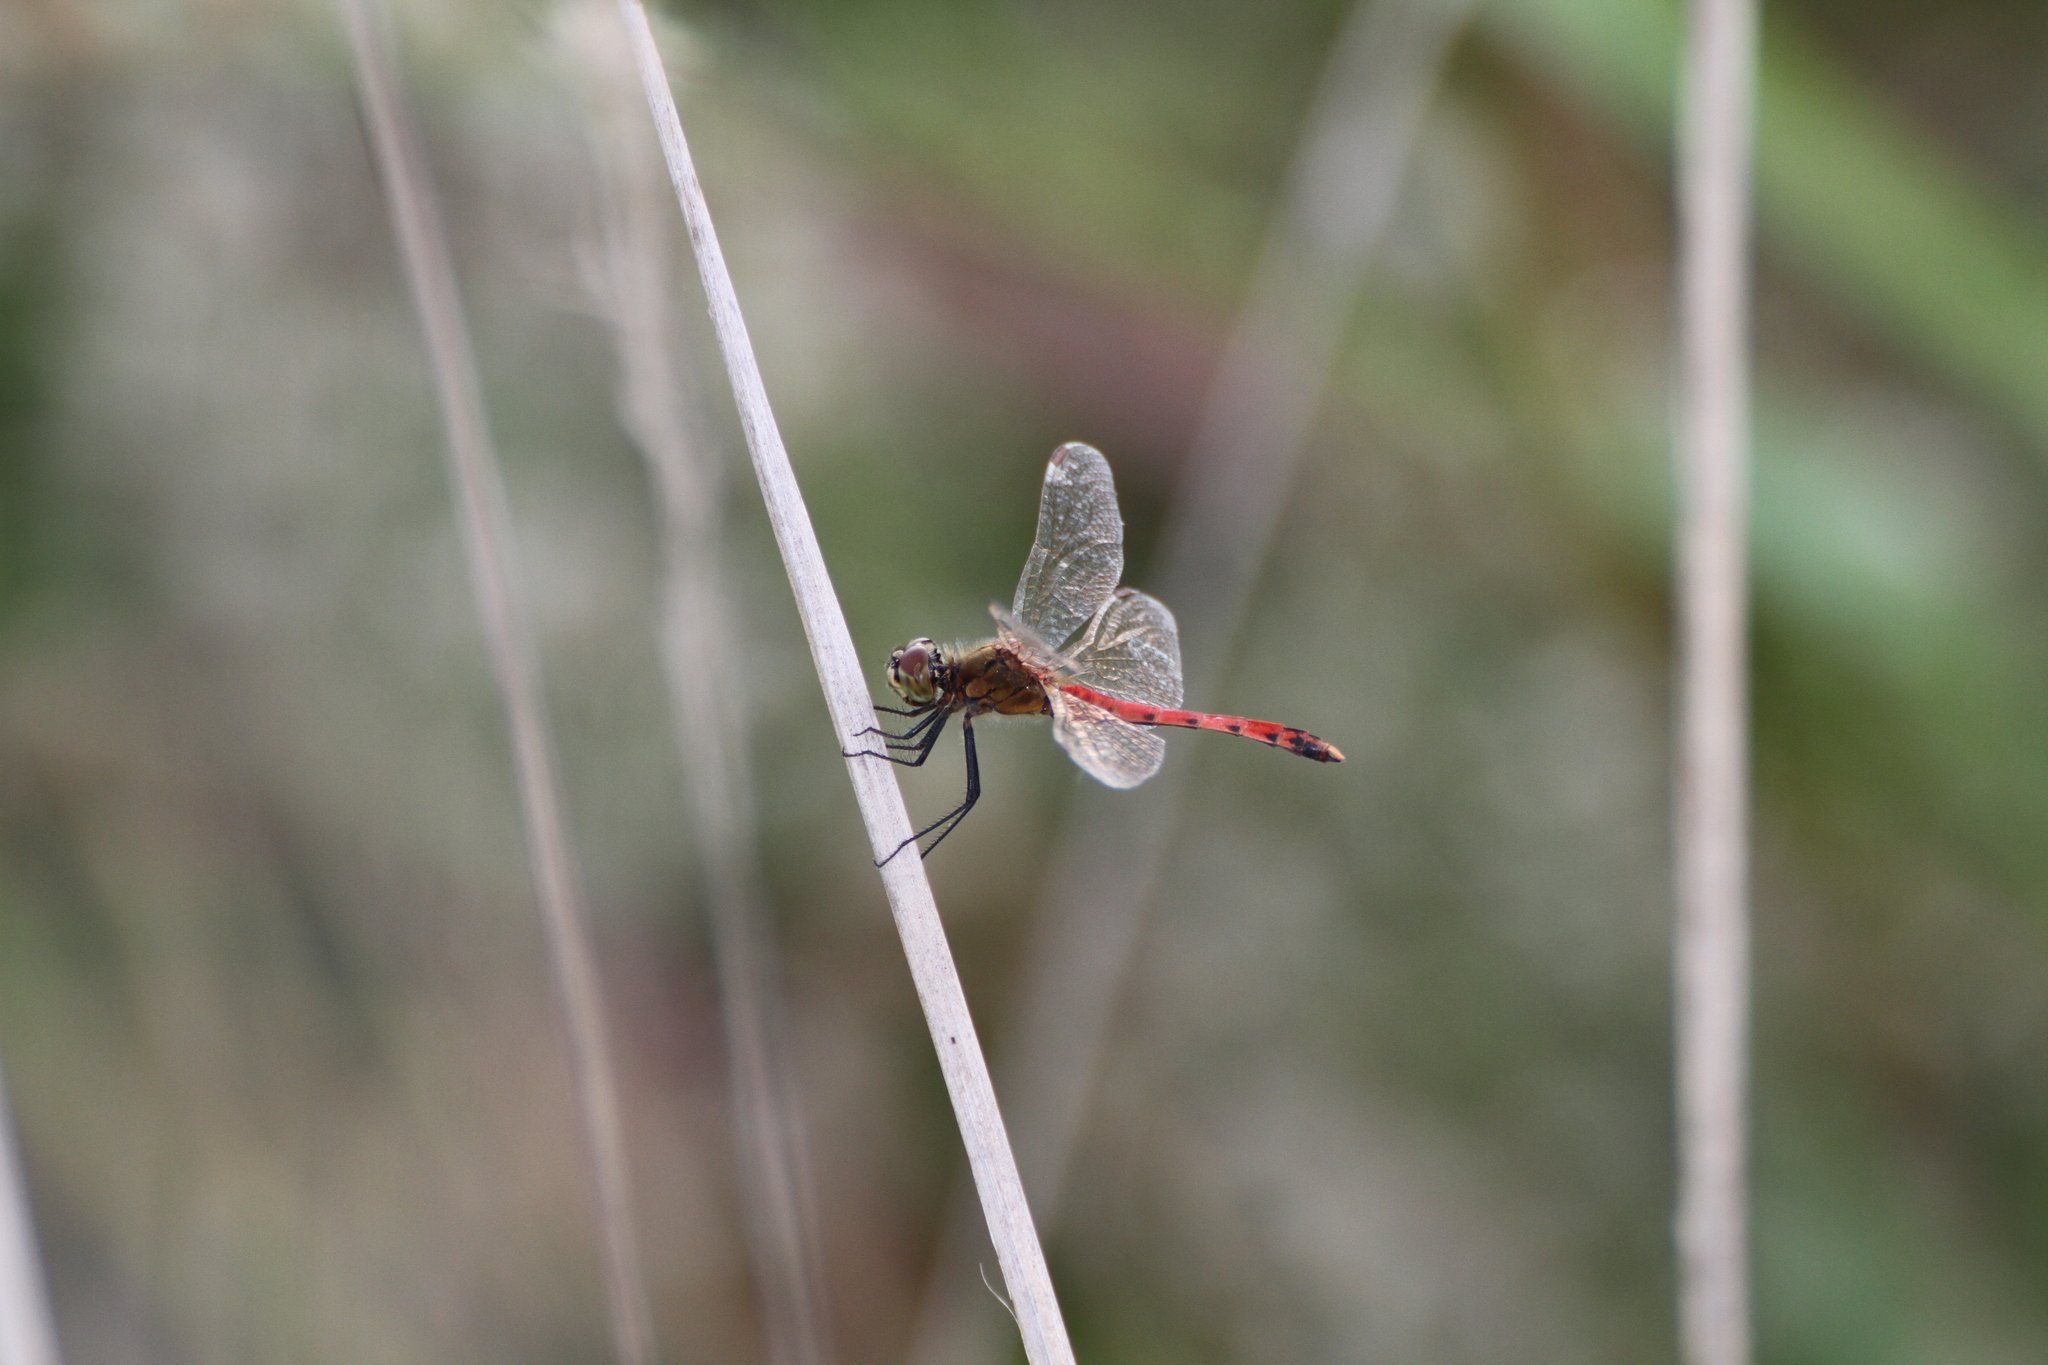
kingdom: Animalia
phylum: Arthropoda
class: Insecta
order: Odonata
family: Libellulidae
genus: Sympetrum
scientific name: Sympetrum depressiusculum
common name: Spotted darter
